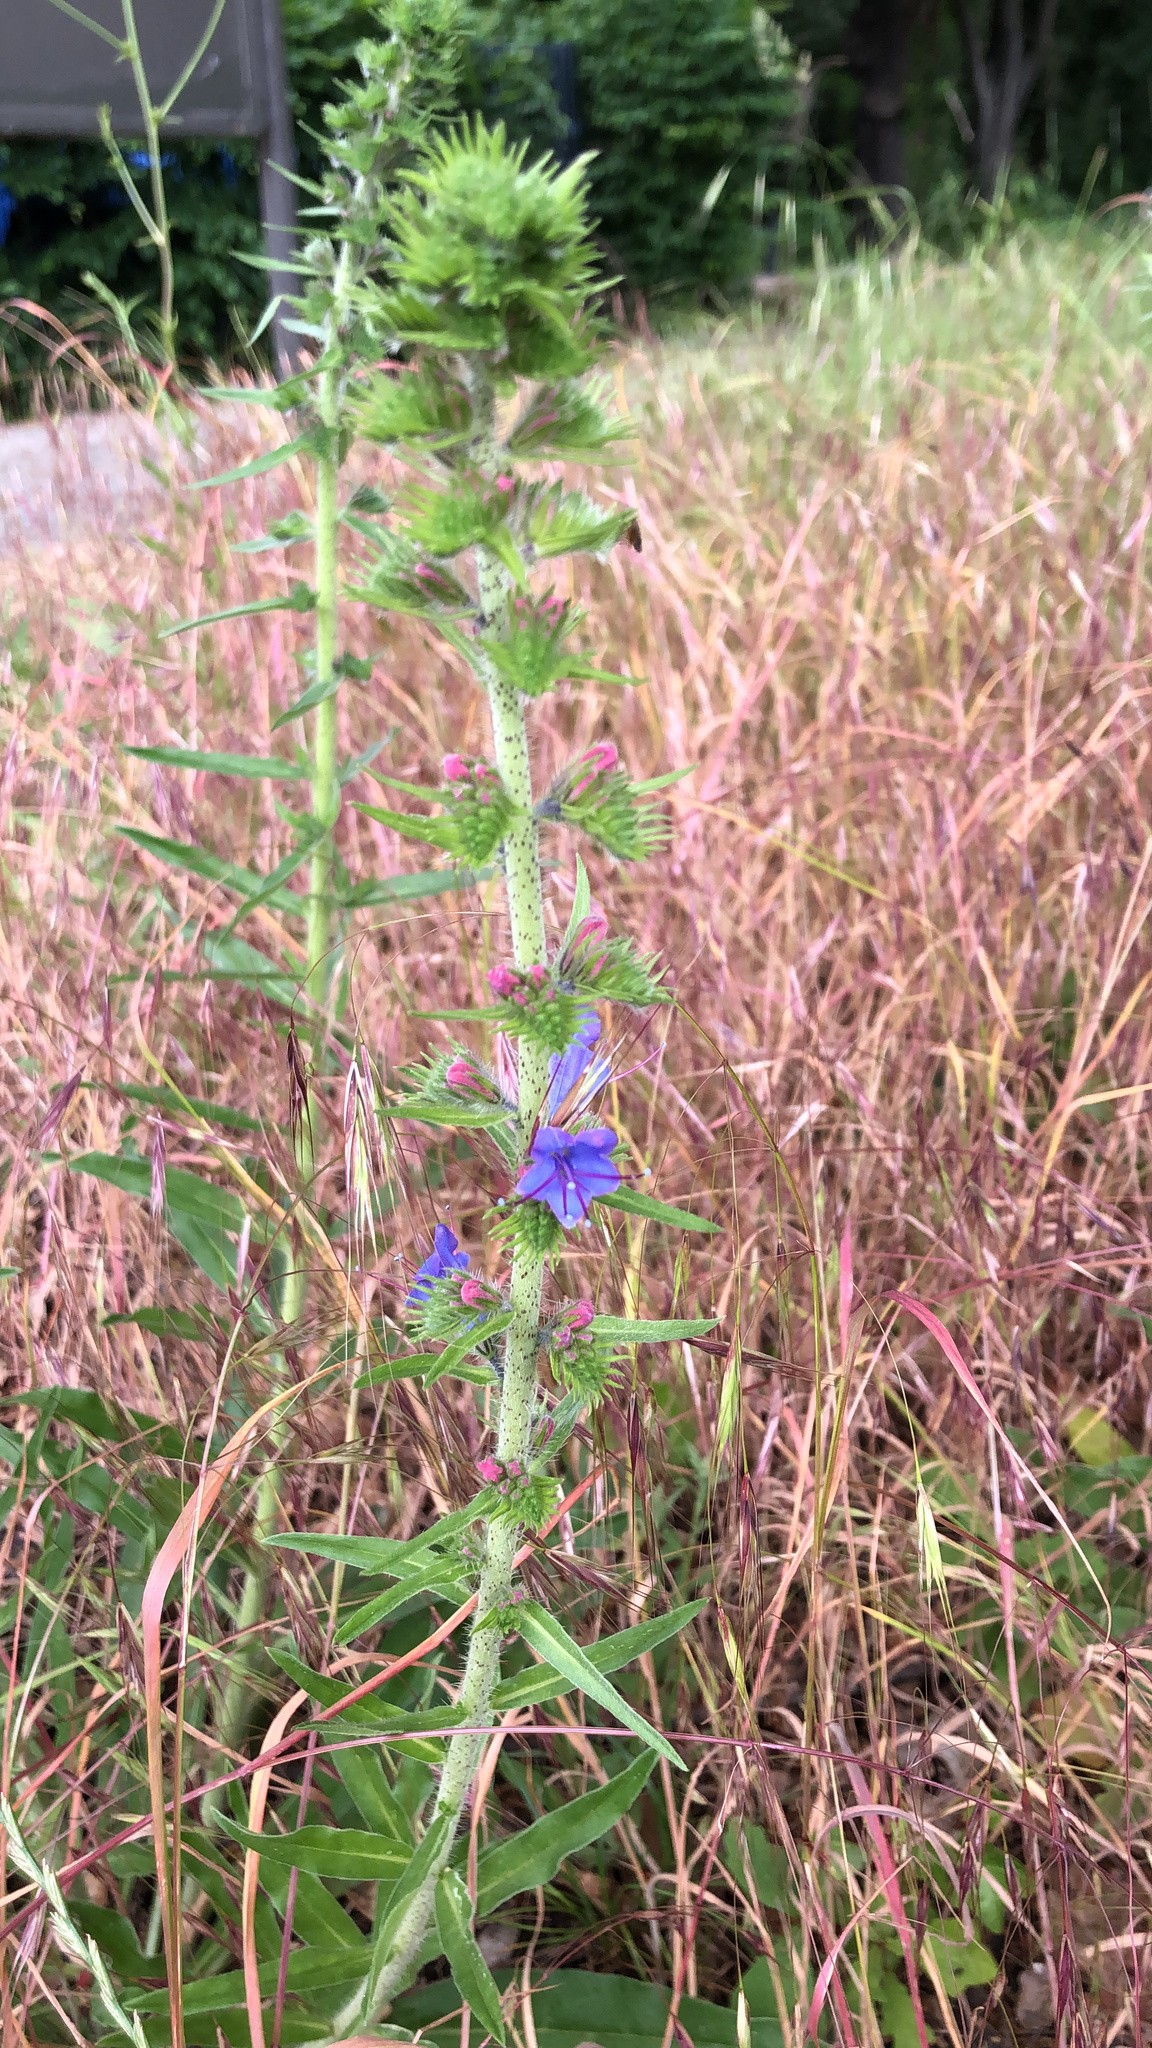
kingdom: Plantae
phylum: Tracheophyta
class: Magnoliopsida
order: Boraginales
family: Boraginaceae
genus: Echium
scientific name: Echium vulgare
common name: Common viper's bugloss
